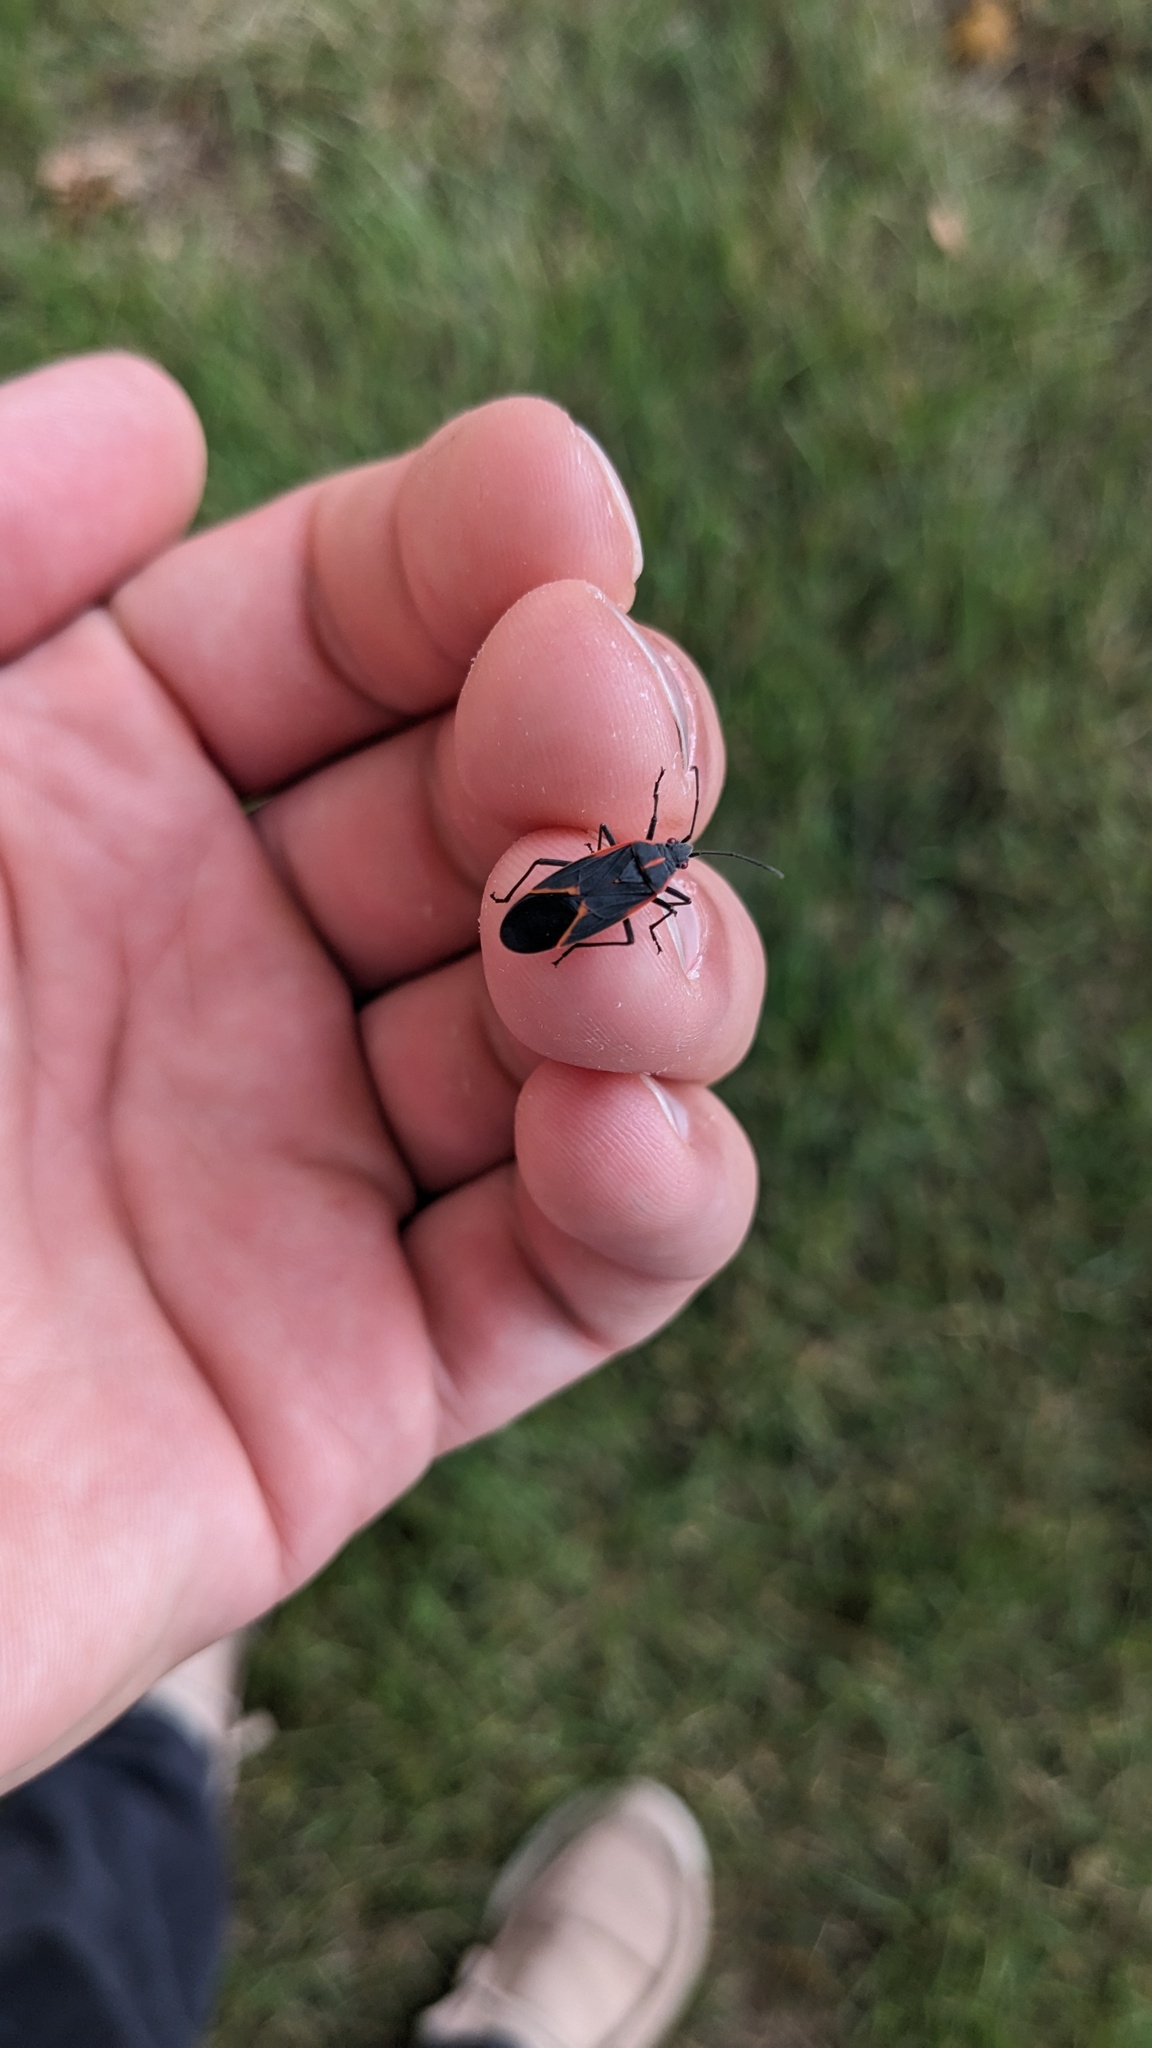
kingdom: Animalia
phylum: Arthropoda
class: Insecta
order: Hemiptera
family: Rhopalidae
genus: Boisea
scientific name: Boisea trivittata
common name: Boxelder bug
